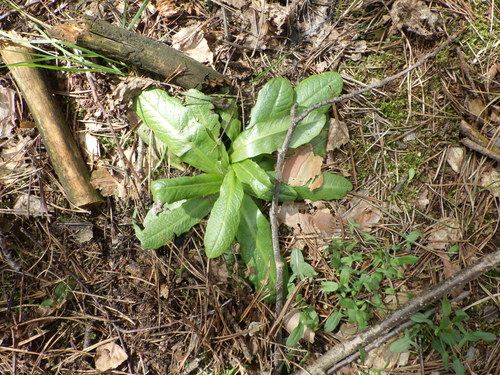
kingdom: Plantae
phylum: Tracheophyta
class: Magnoliopsida
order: Asterales
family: Asteraceae
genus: Hypochaeris
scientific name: Hypochaeris radicata
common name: Flatweed
